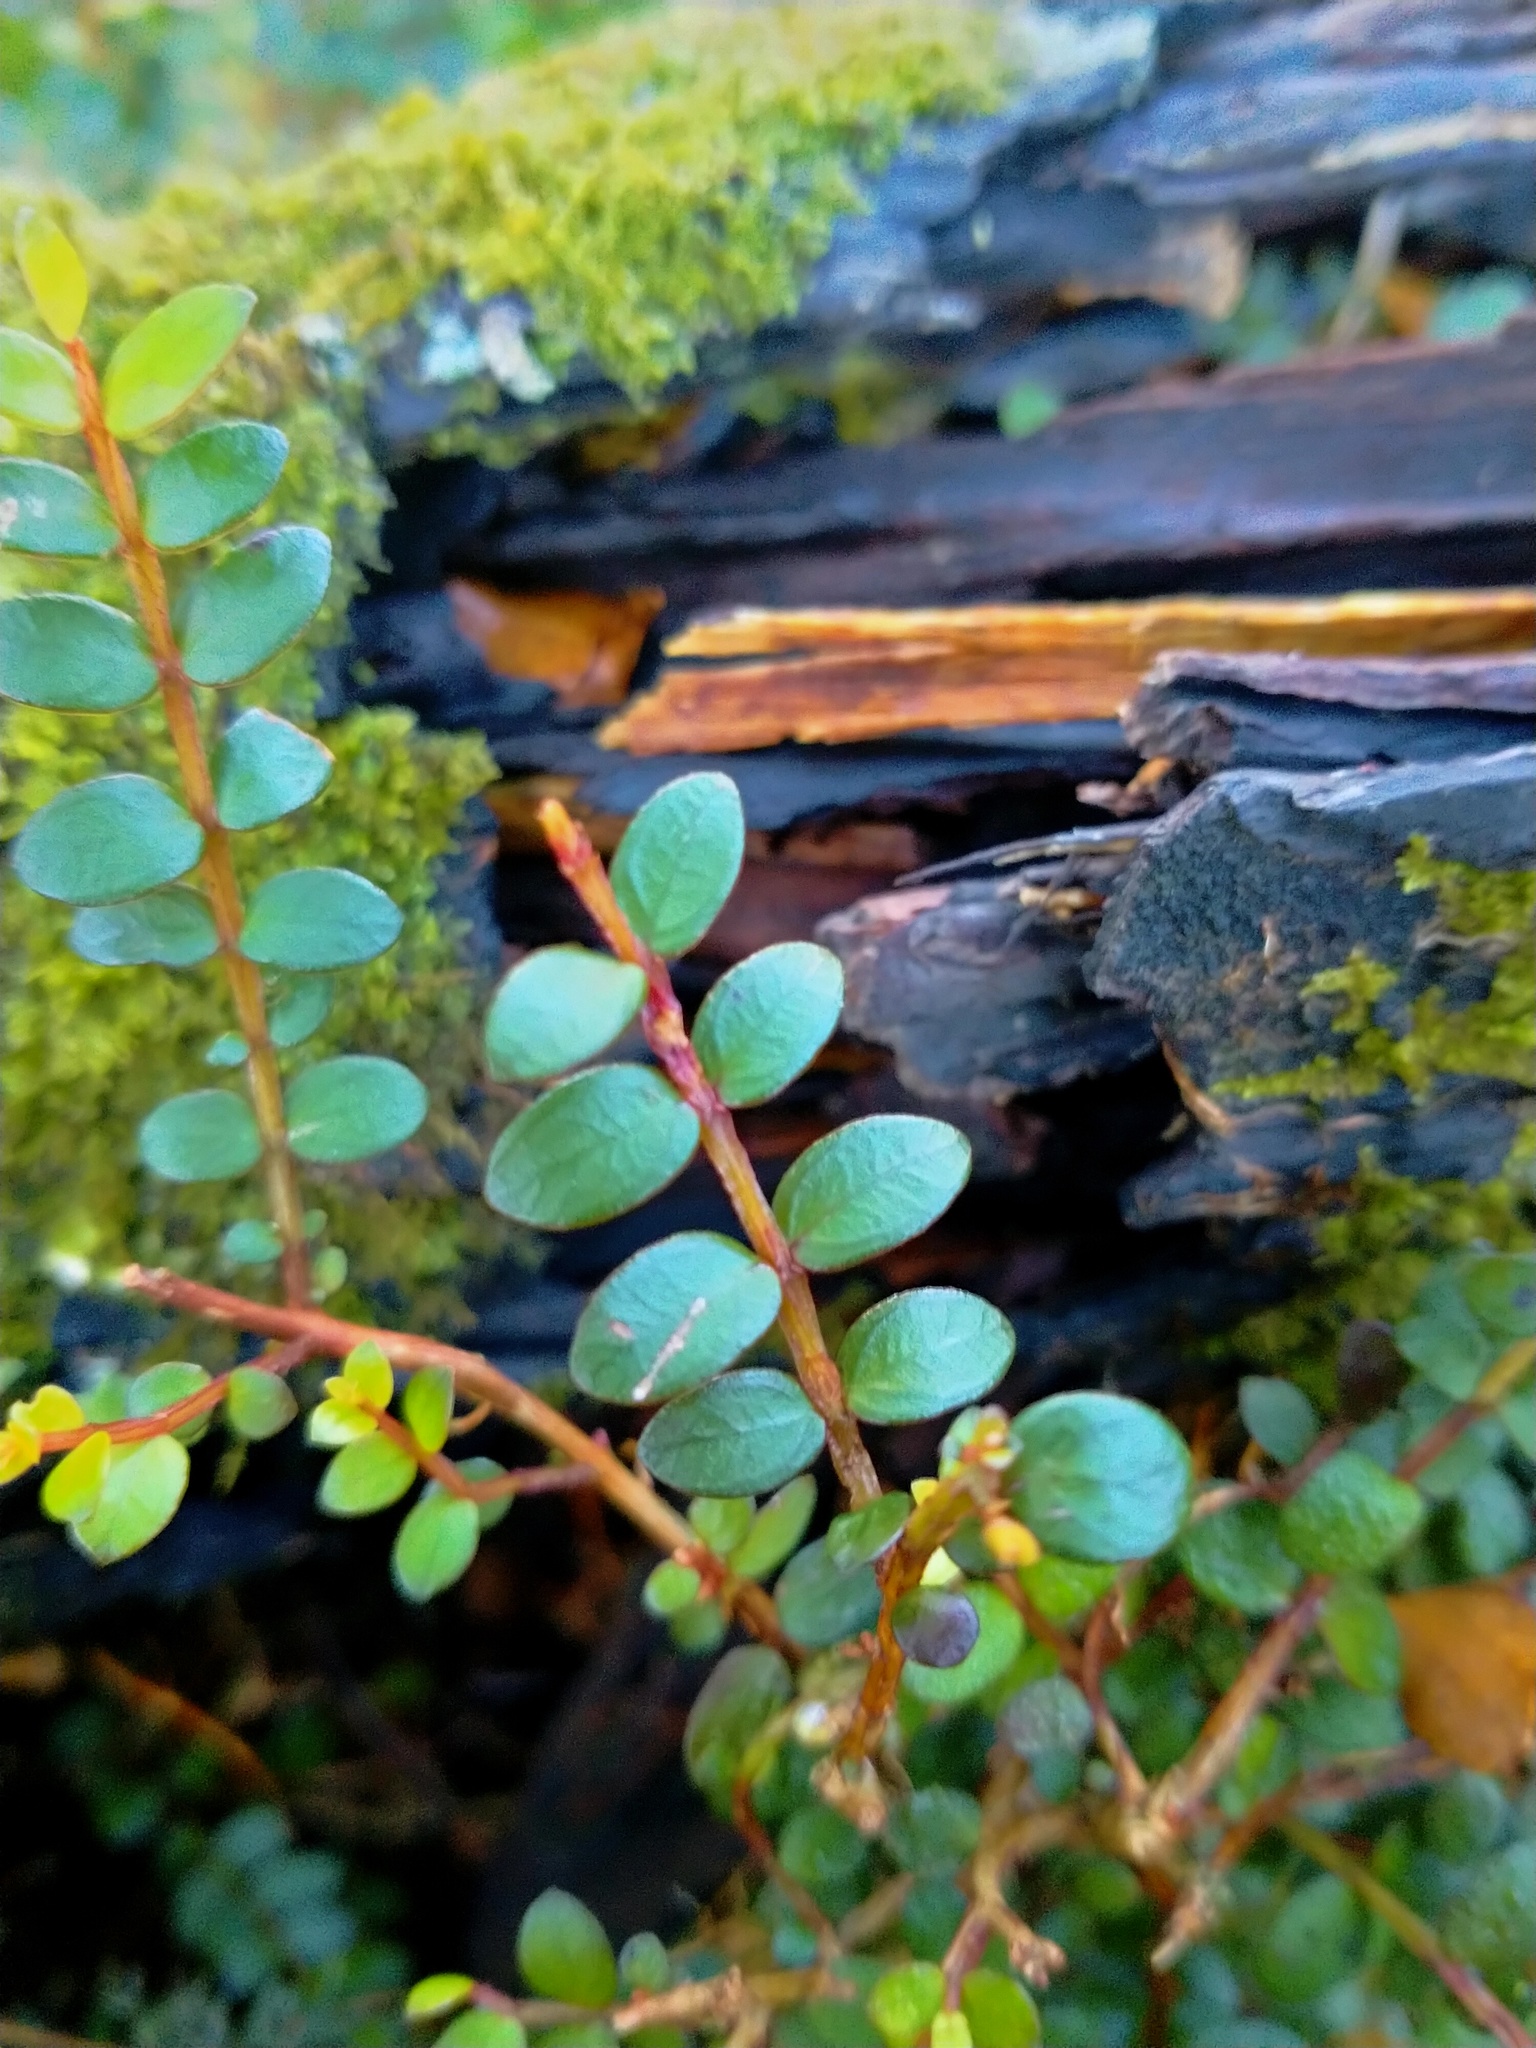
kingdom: Plantae
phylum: Tracheophyta
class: Magnoliopsida
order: Myrtales
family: Myrtaceae
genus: Metrosideros
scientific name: Metrosideros diffusa
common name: Small ratavine
